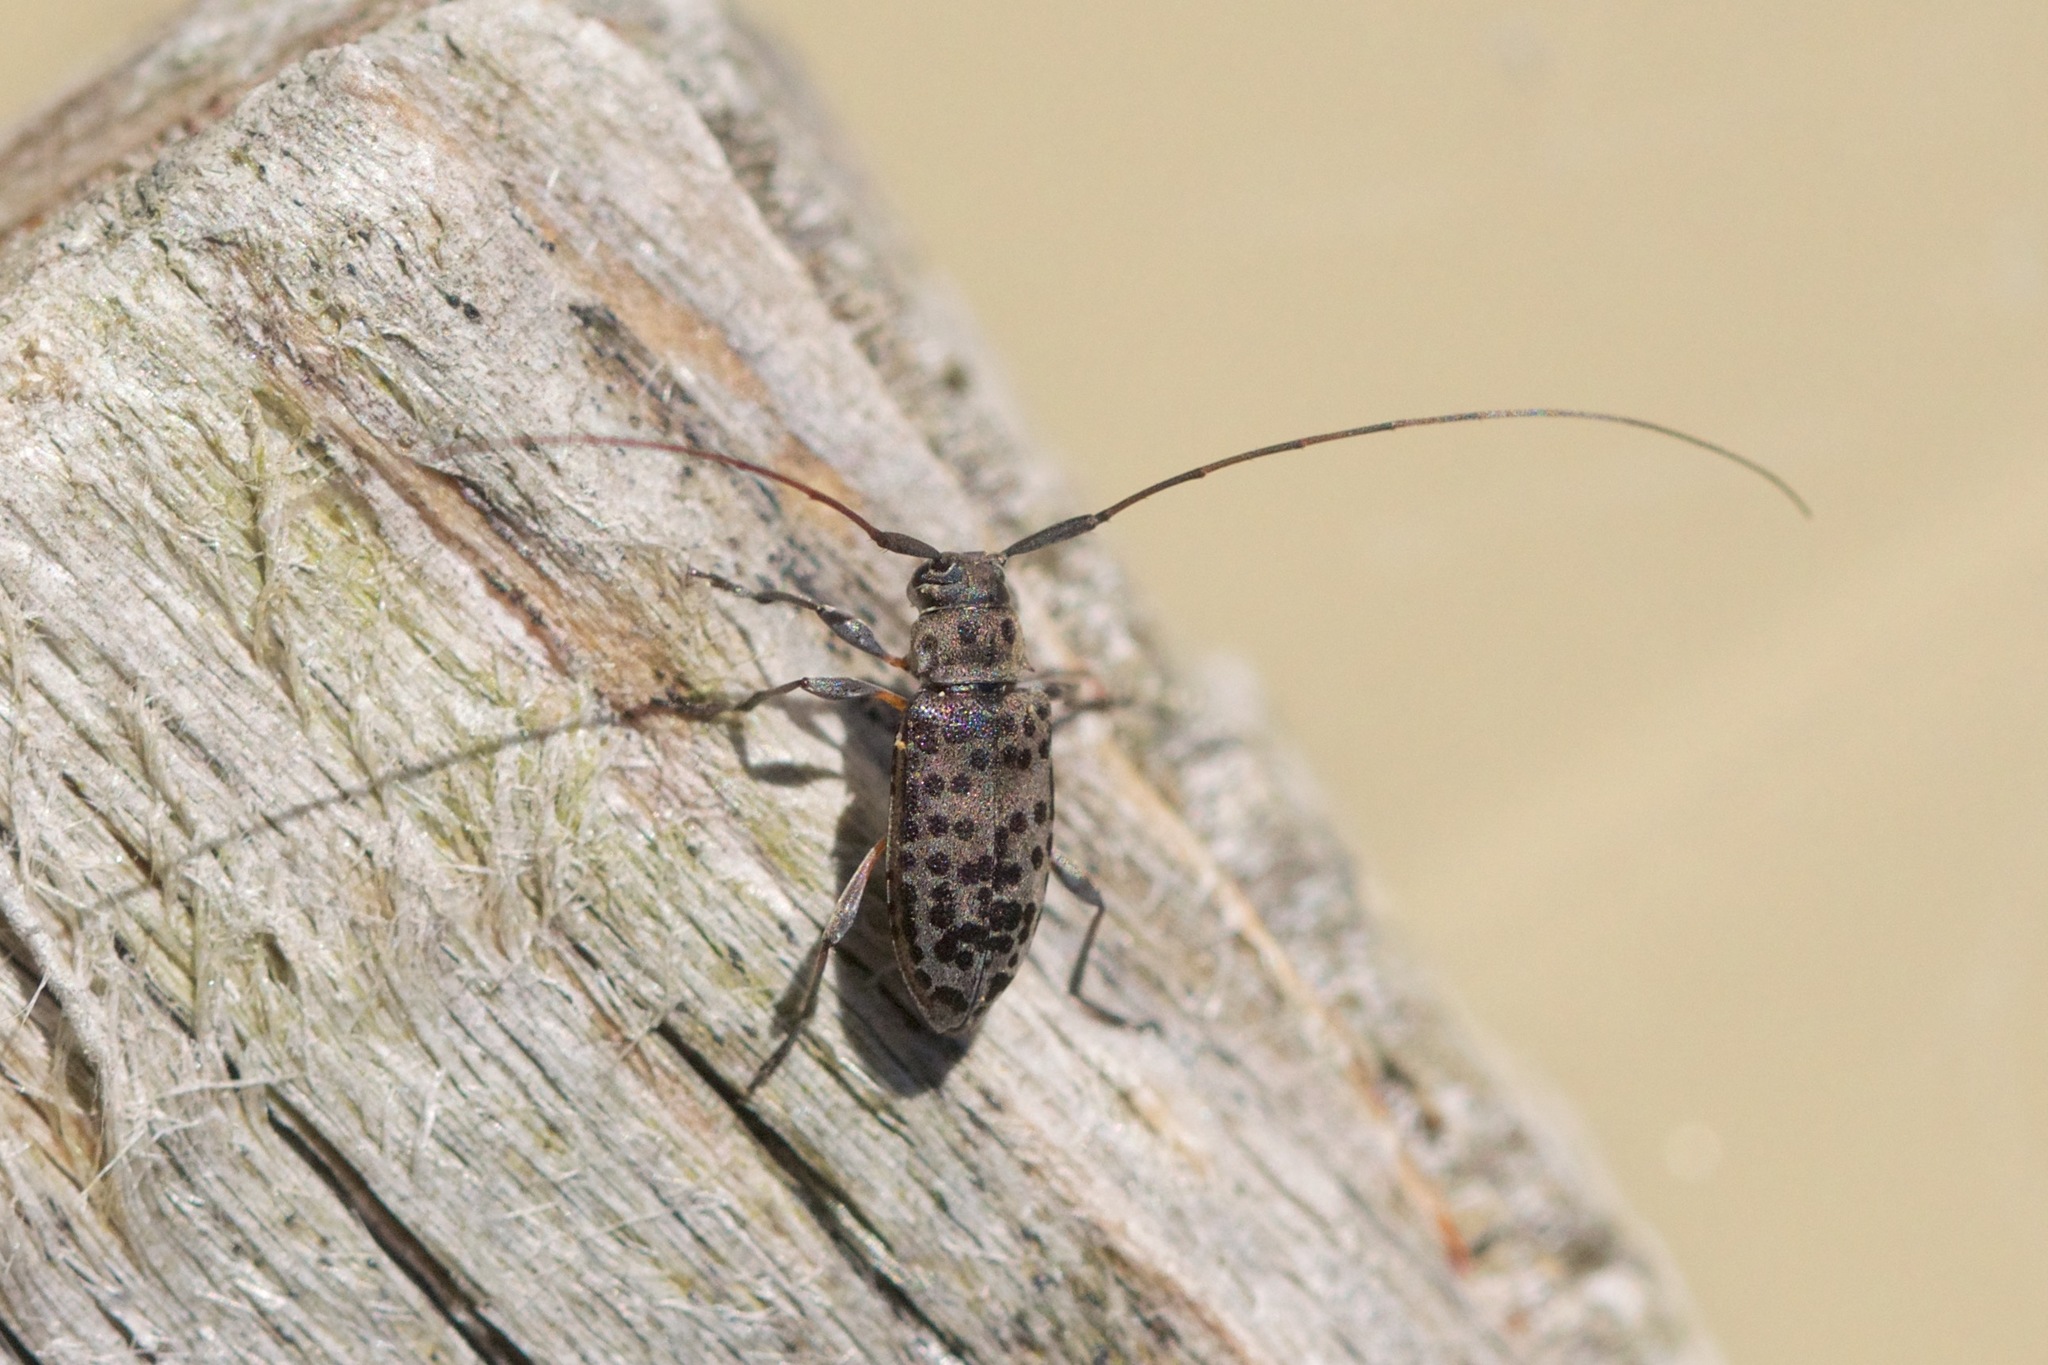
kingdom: Animalia
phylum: Arthropoda
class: Insecta
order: Coleoptera
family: Cerambycidae
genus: Hyperplatys
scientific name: Hyperplatys aspersa
